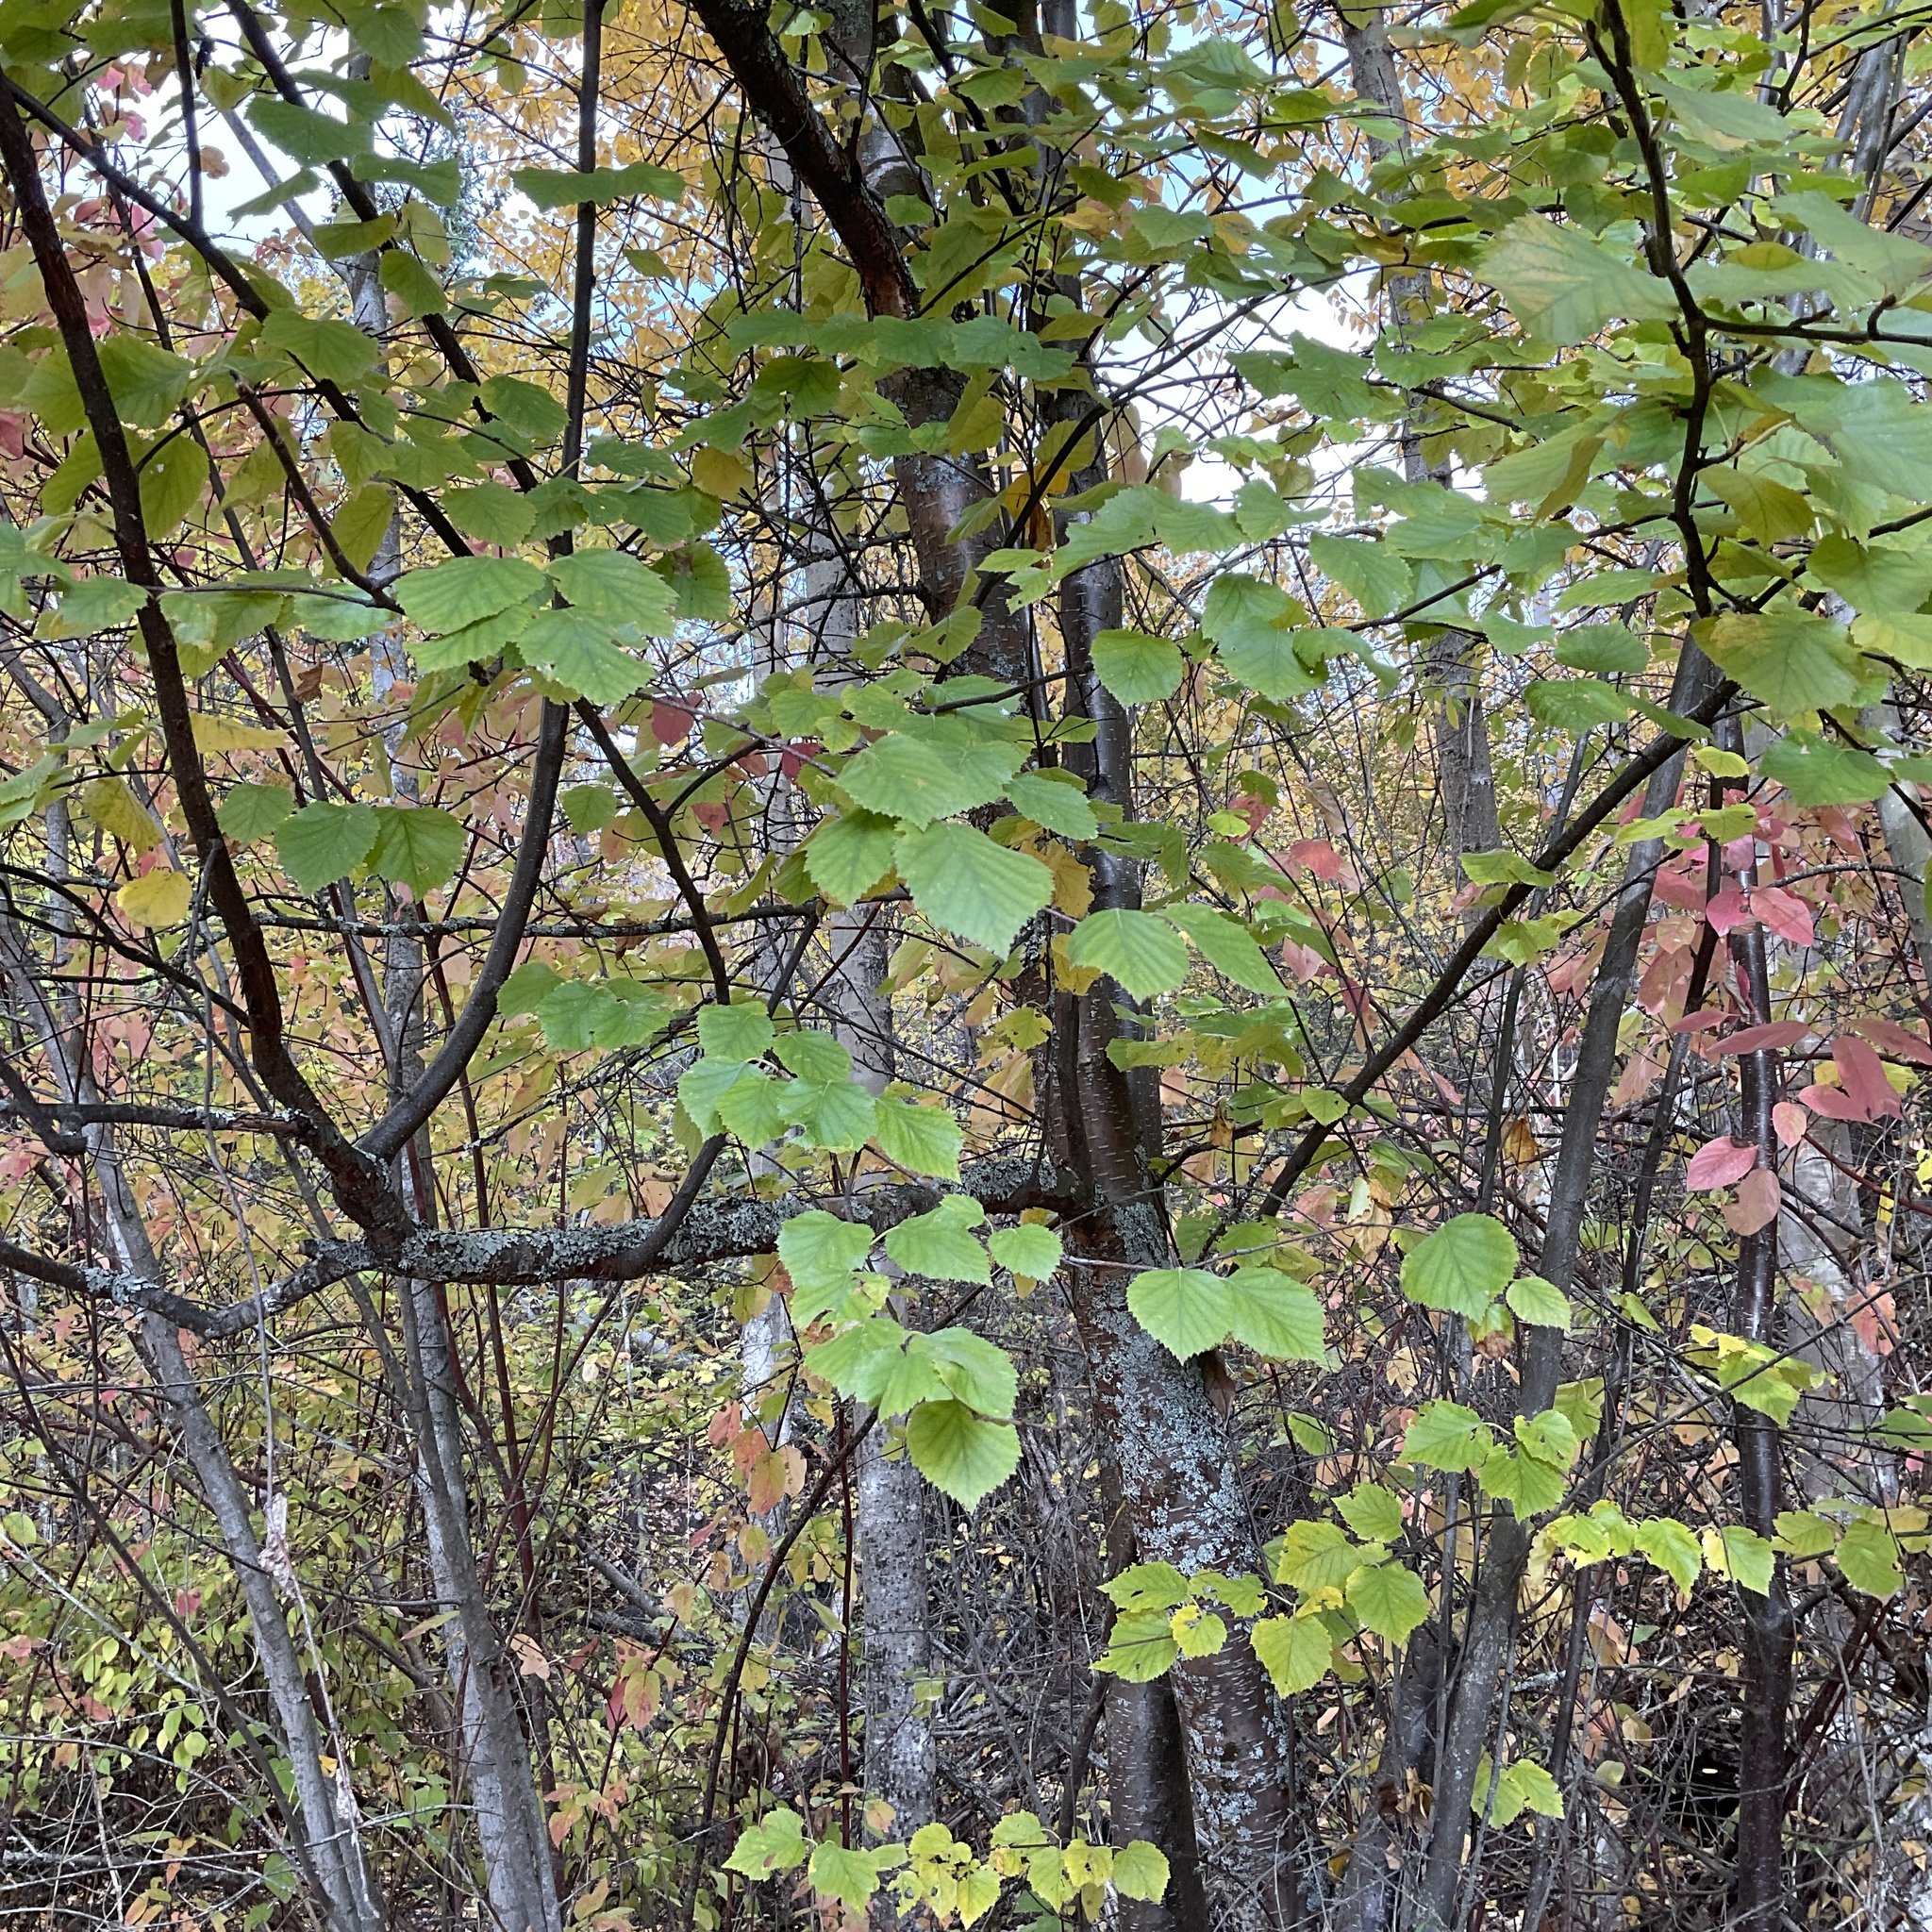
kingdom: Plantae
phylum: Tracheophyta
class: Magnoliopsida
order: Fagales
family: Betulaceae
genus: Betula
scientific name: Betula occidentalis
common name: River birch
